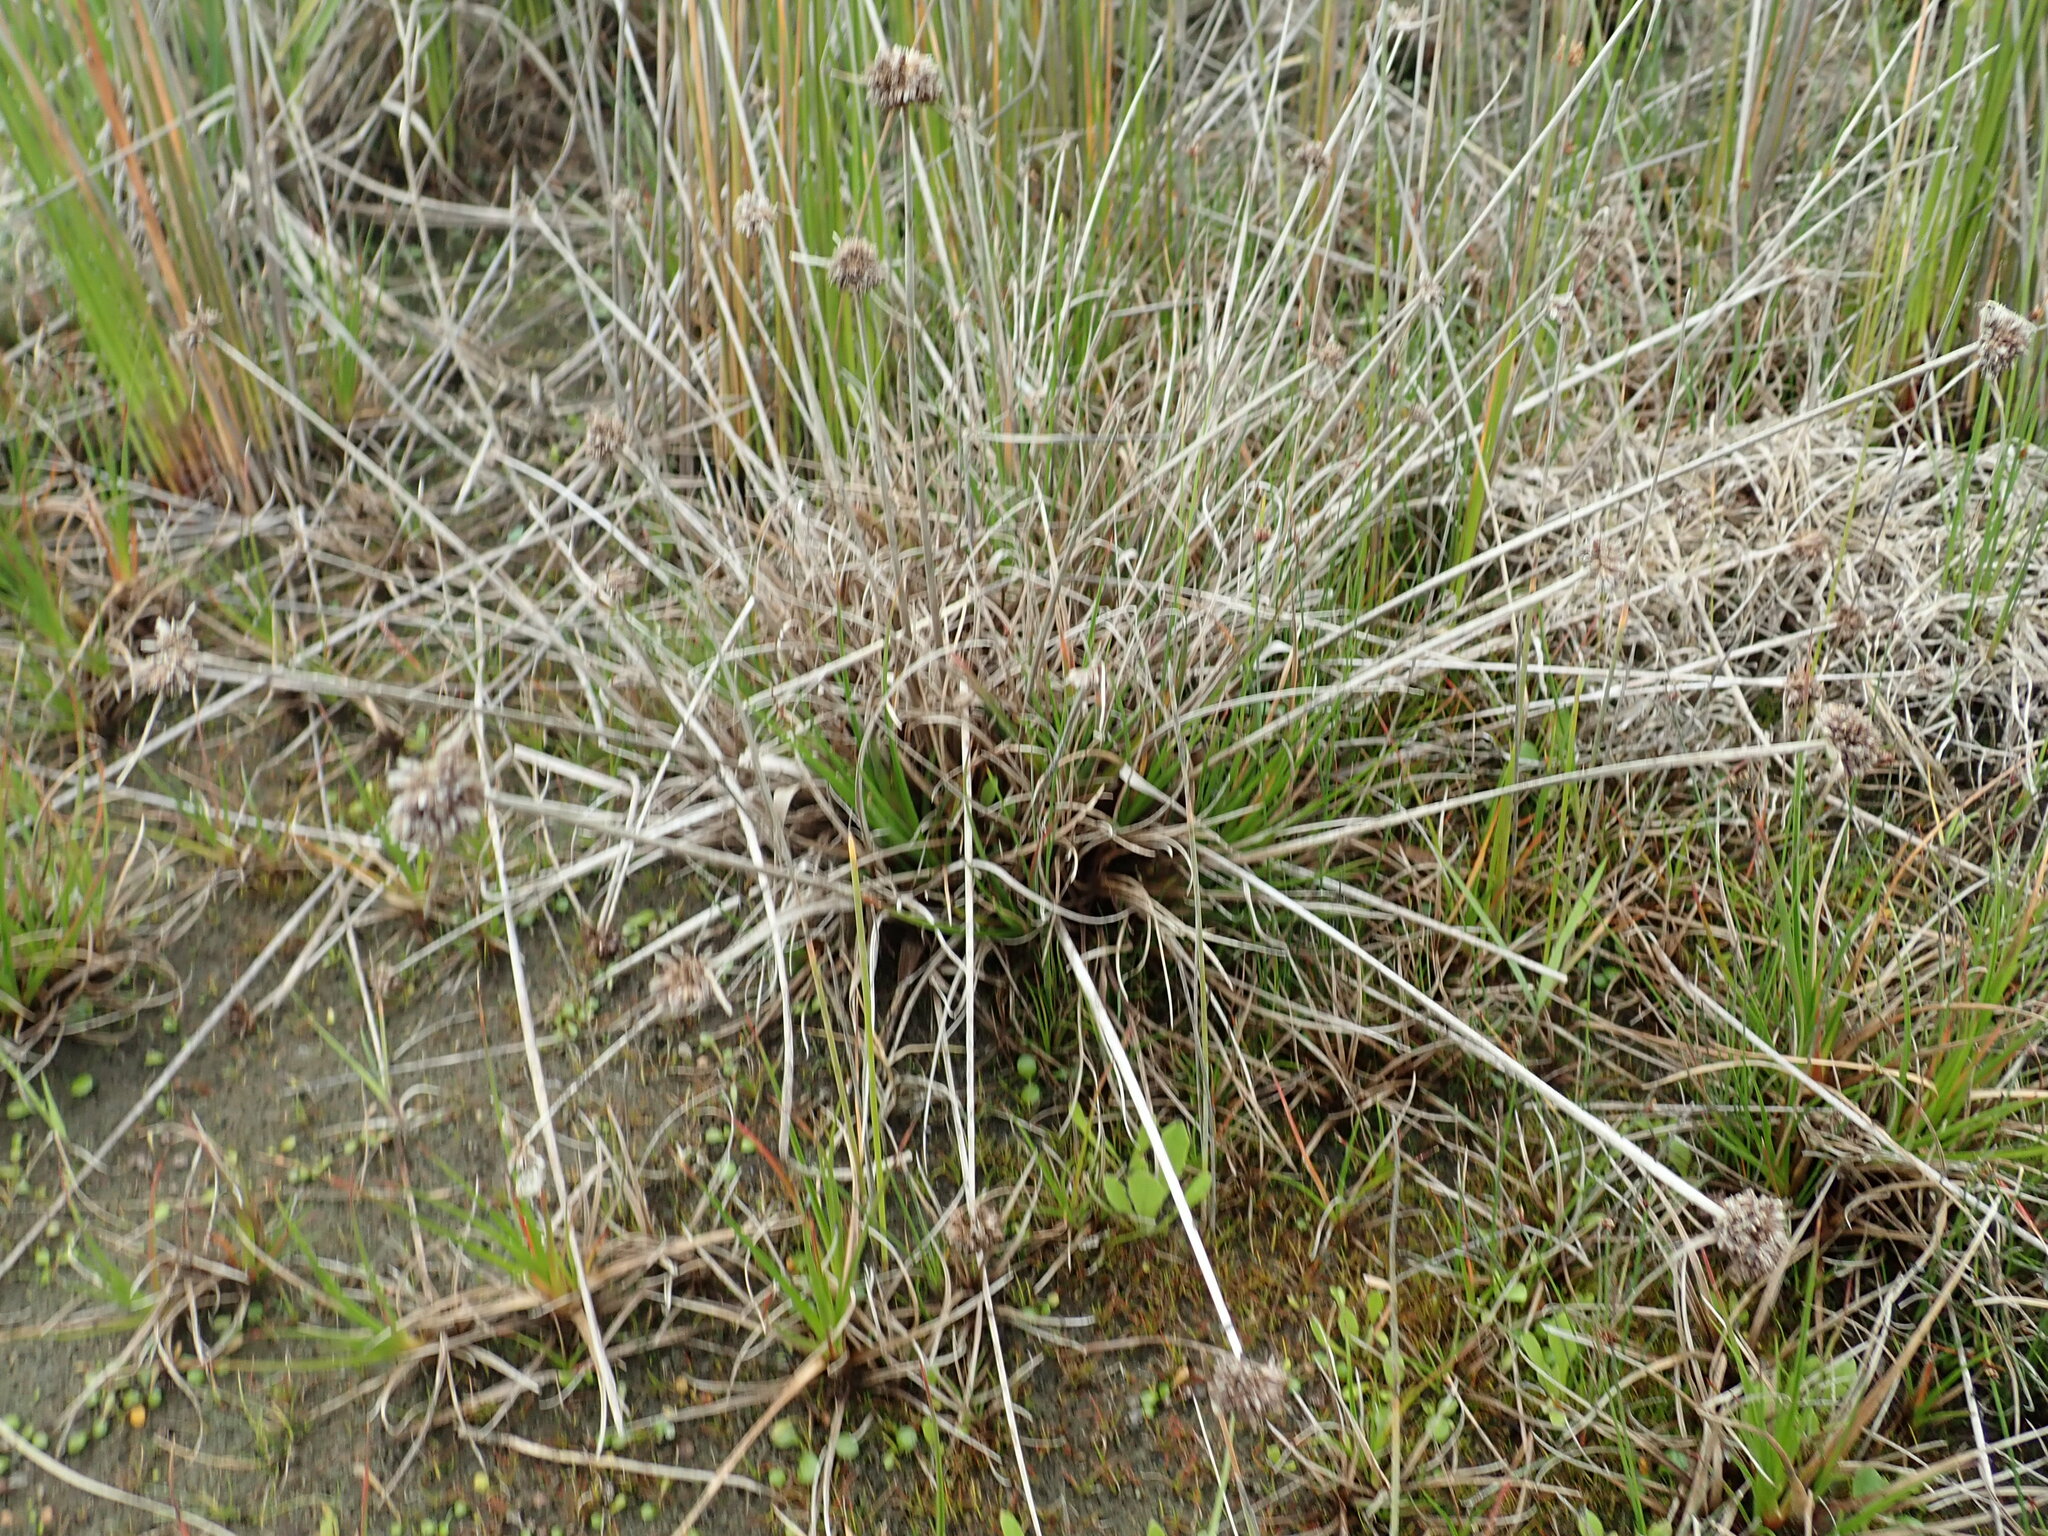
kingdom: Plantae
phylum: Tracheophyta
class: Liliopsida
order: Poales
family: Juncaceae
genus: Juncus
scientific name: Juncus caespiticius
